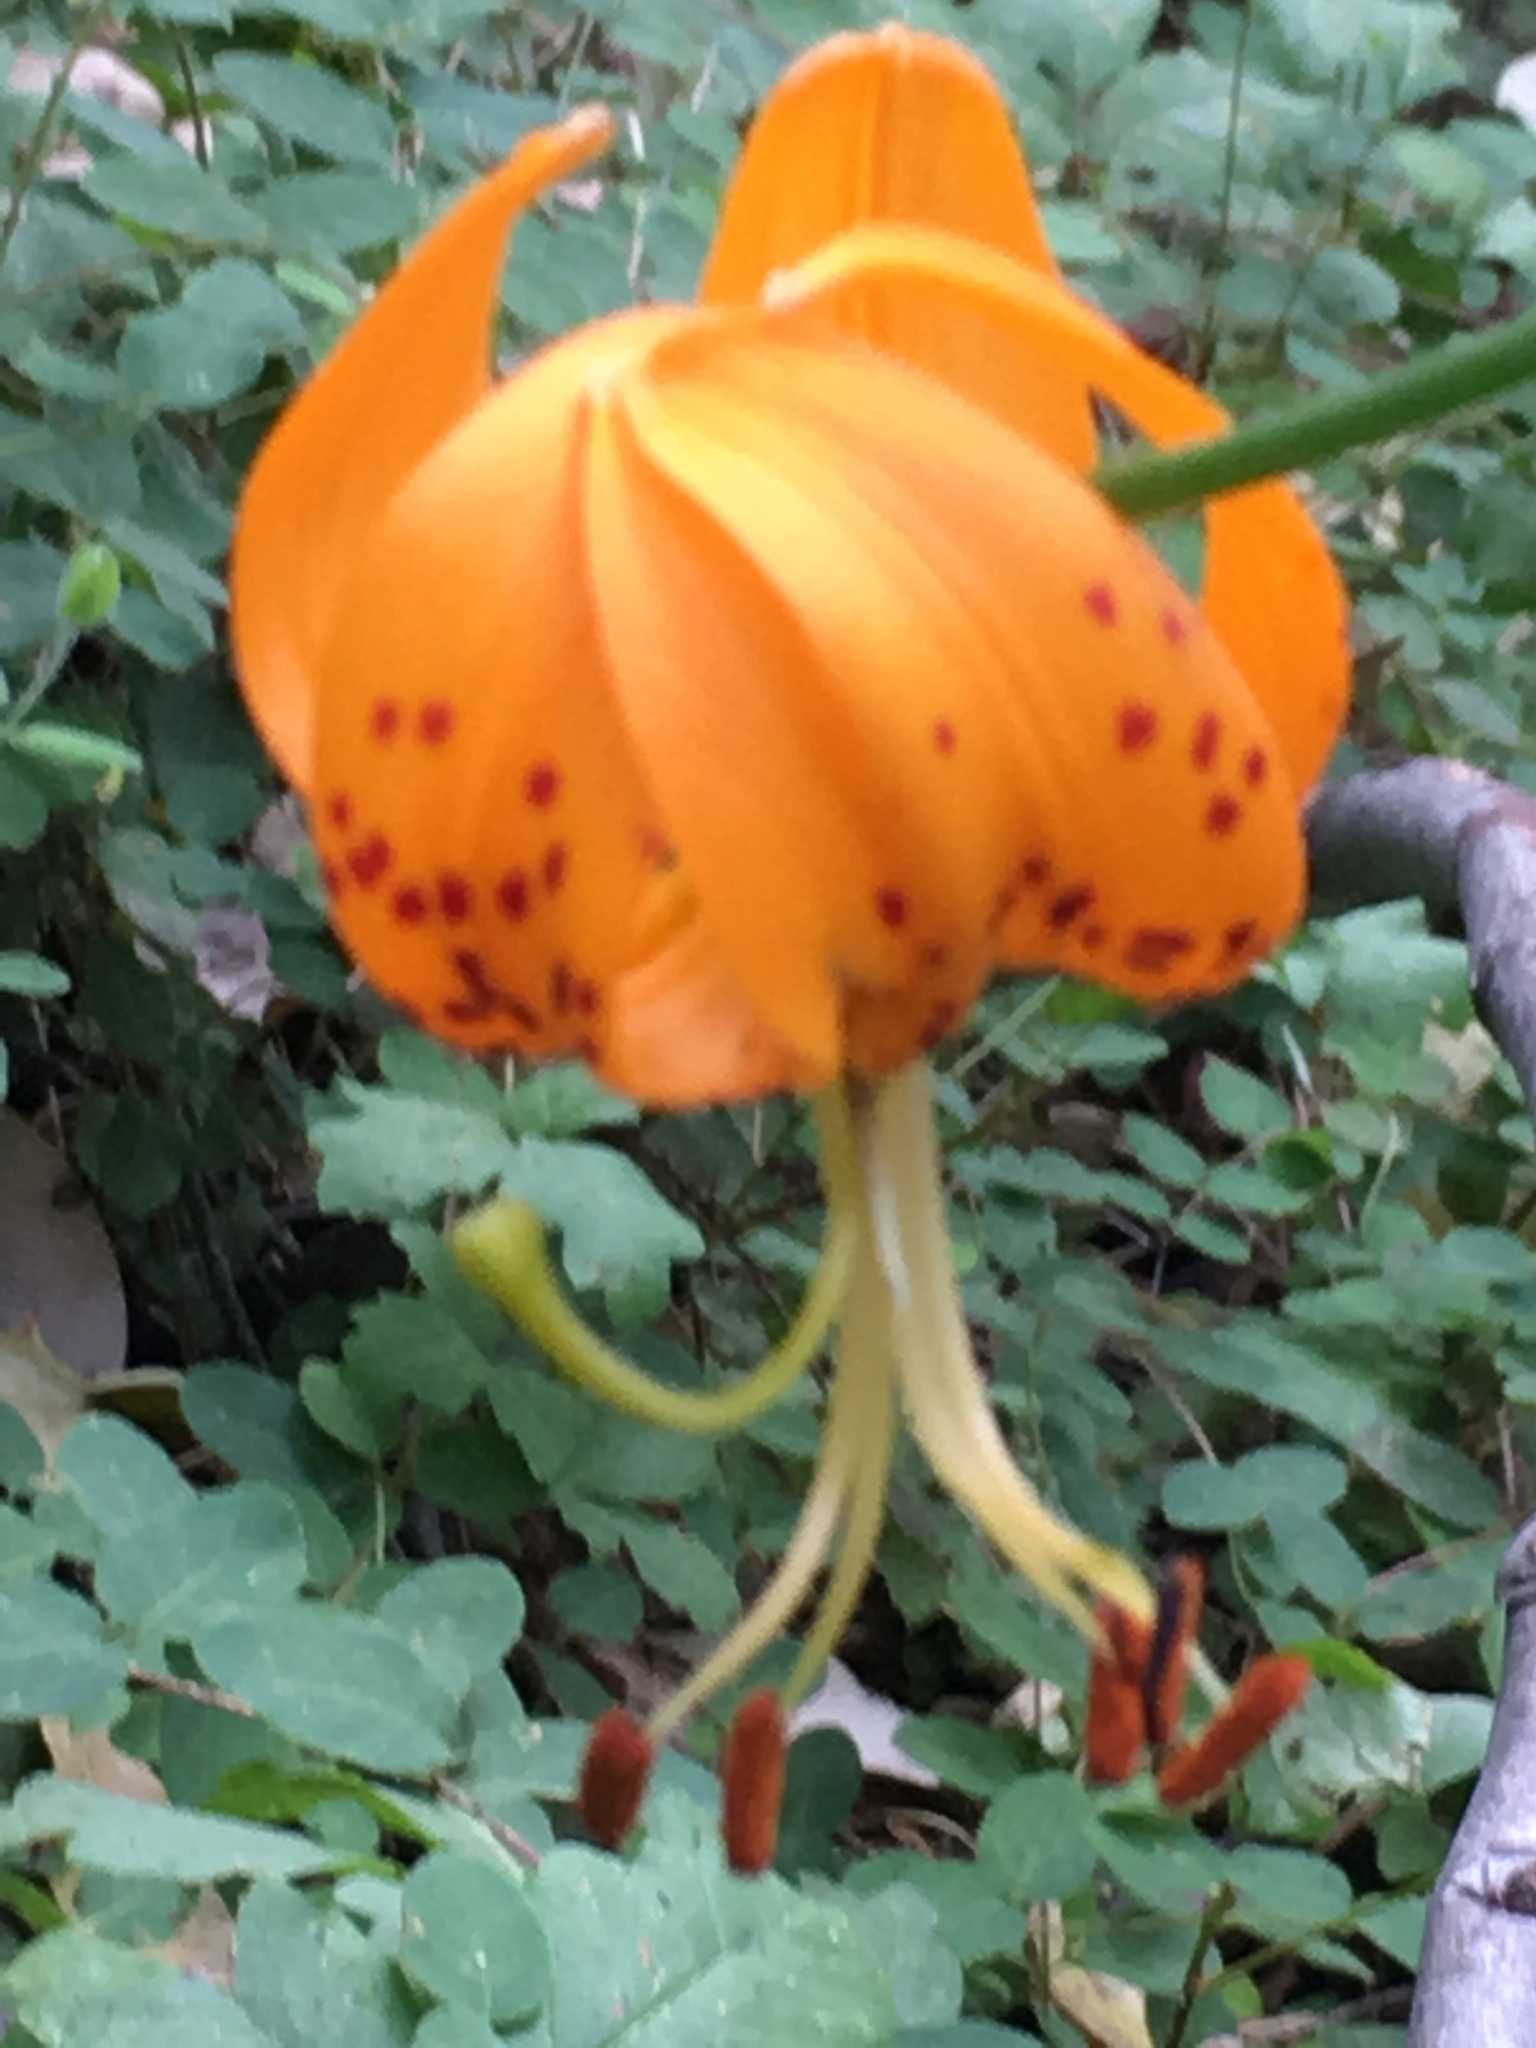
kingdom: Plantae
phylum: Tracheophyta
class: Liliopsida
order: Liliales
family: Liliaceae
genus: Lilium
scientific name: Lilium humboldtii
